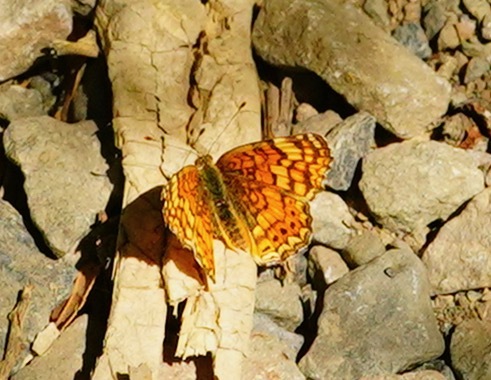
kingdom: Animalia
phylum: Arthropoda
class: Insecta
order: Lepidoptera
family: Nymphalidae
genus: Eresia
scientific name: Eresia aveyrona
